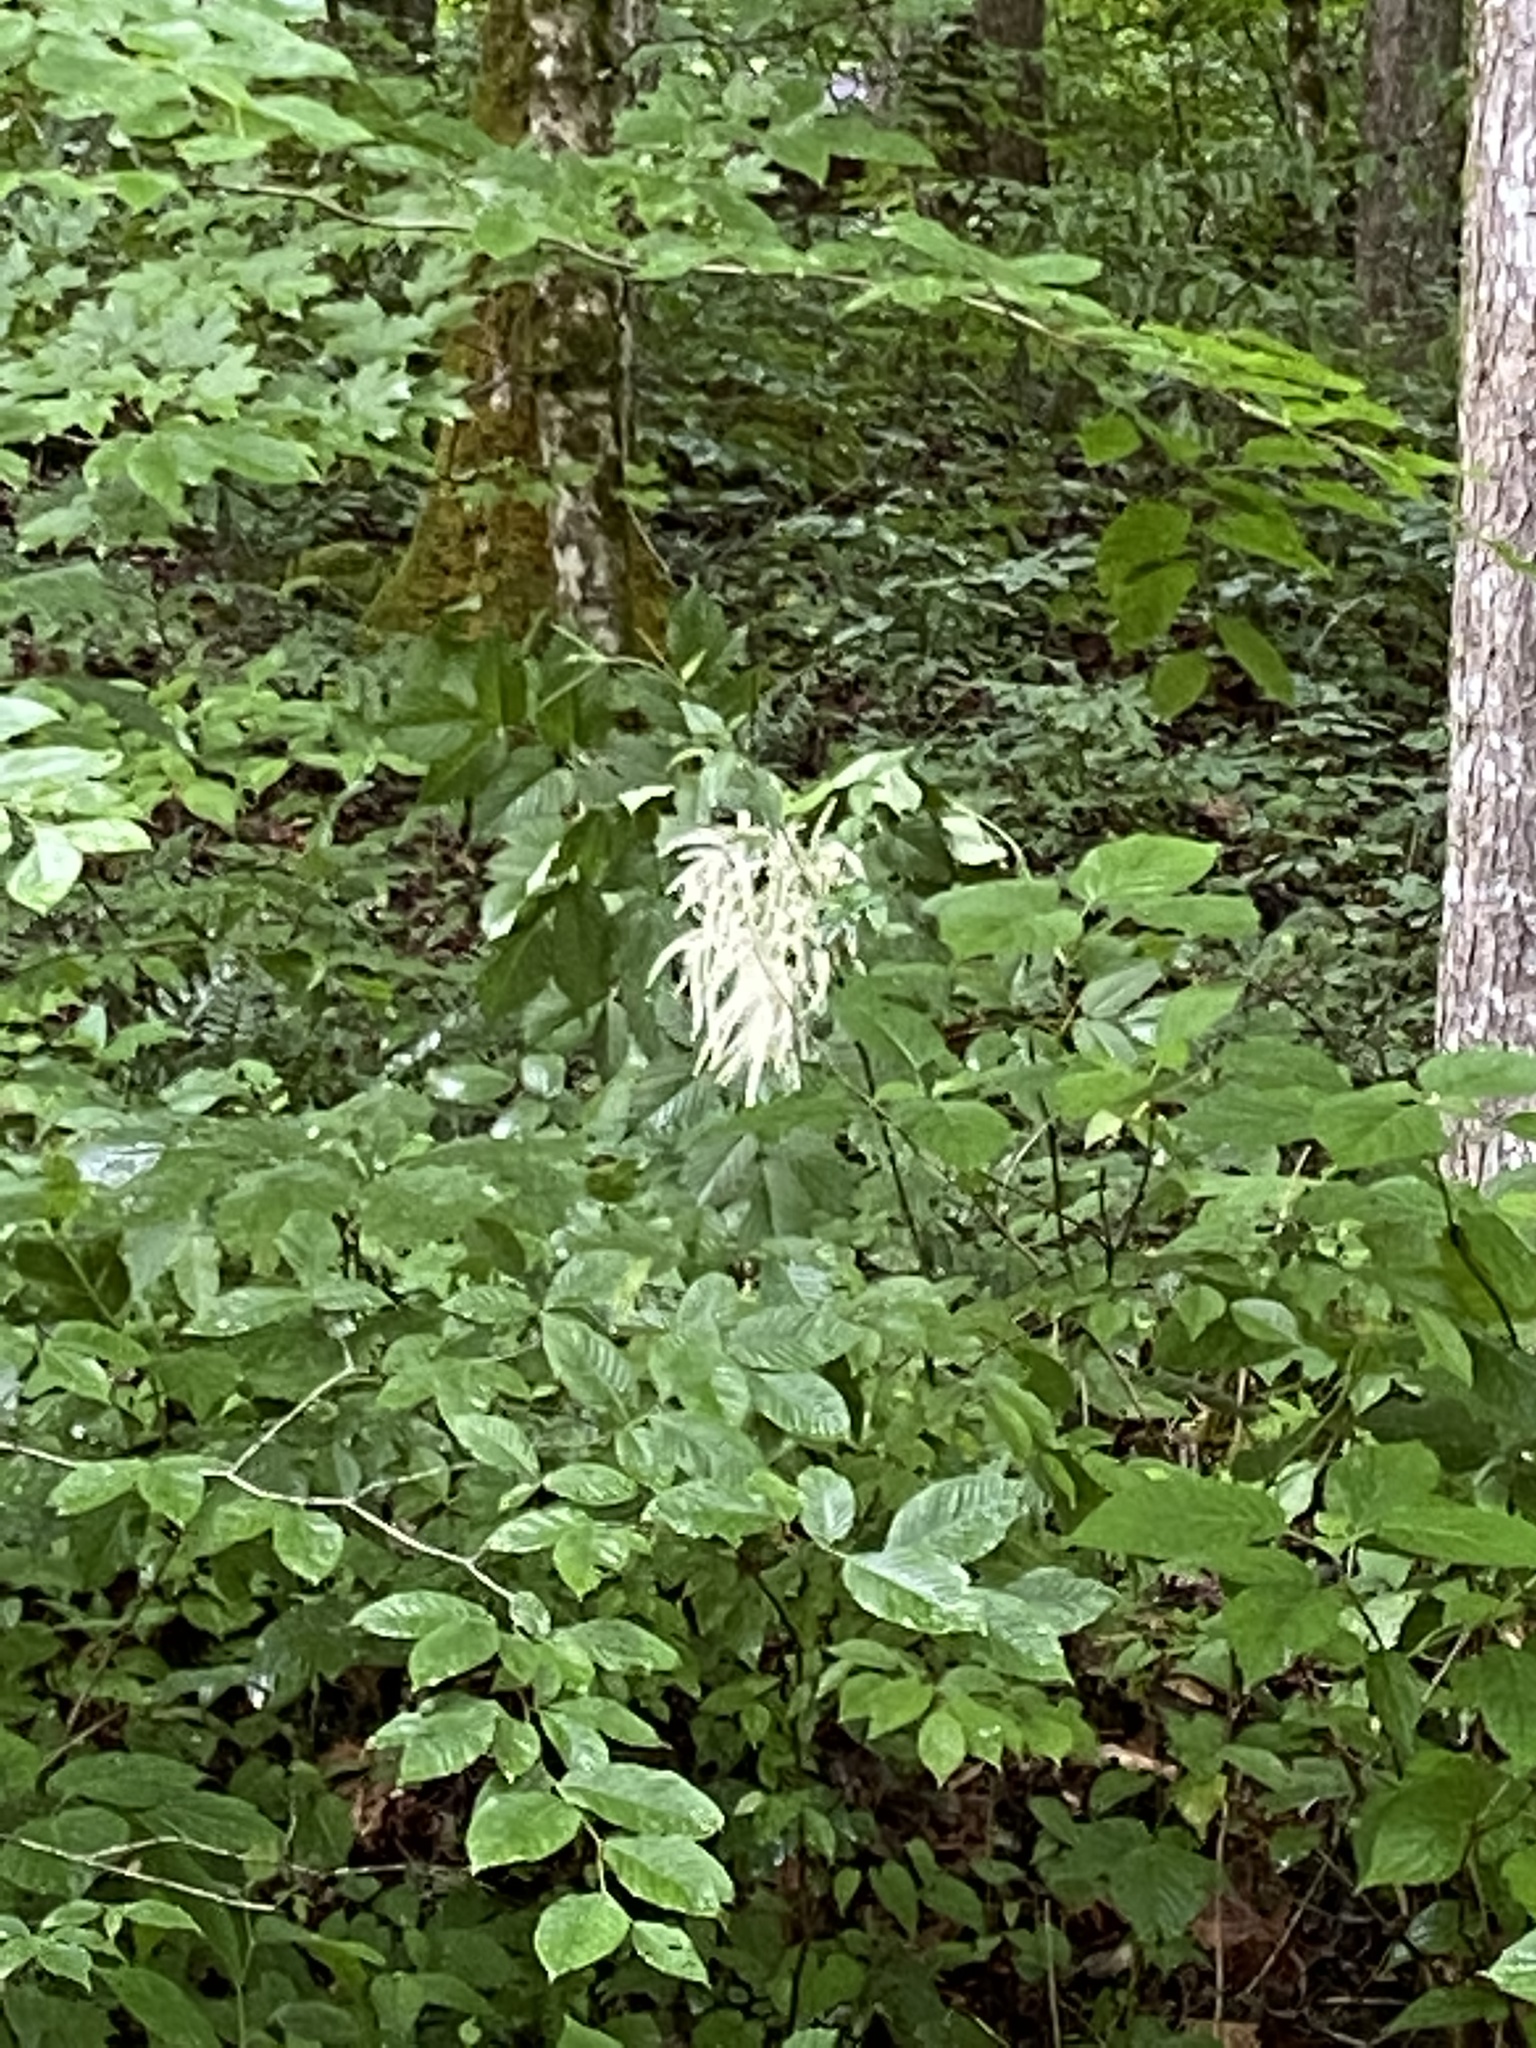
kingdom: Plantae
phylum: Tracheophyta
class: Magnoliopsida
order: Rosales
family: Rosaceae
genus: Aruncus
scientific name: Aruncus dioicus
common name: Buck's-beard
